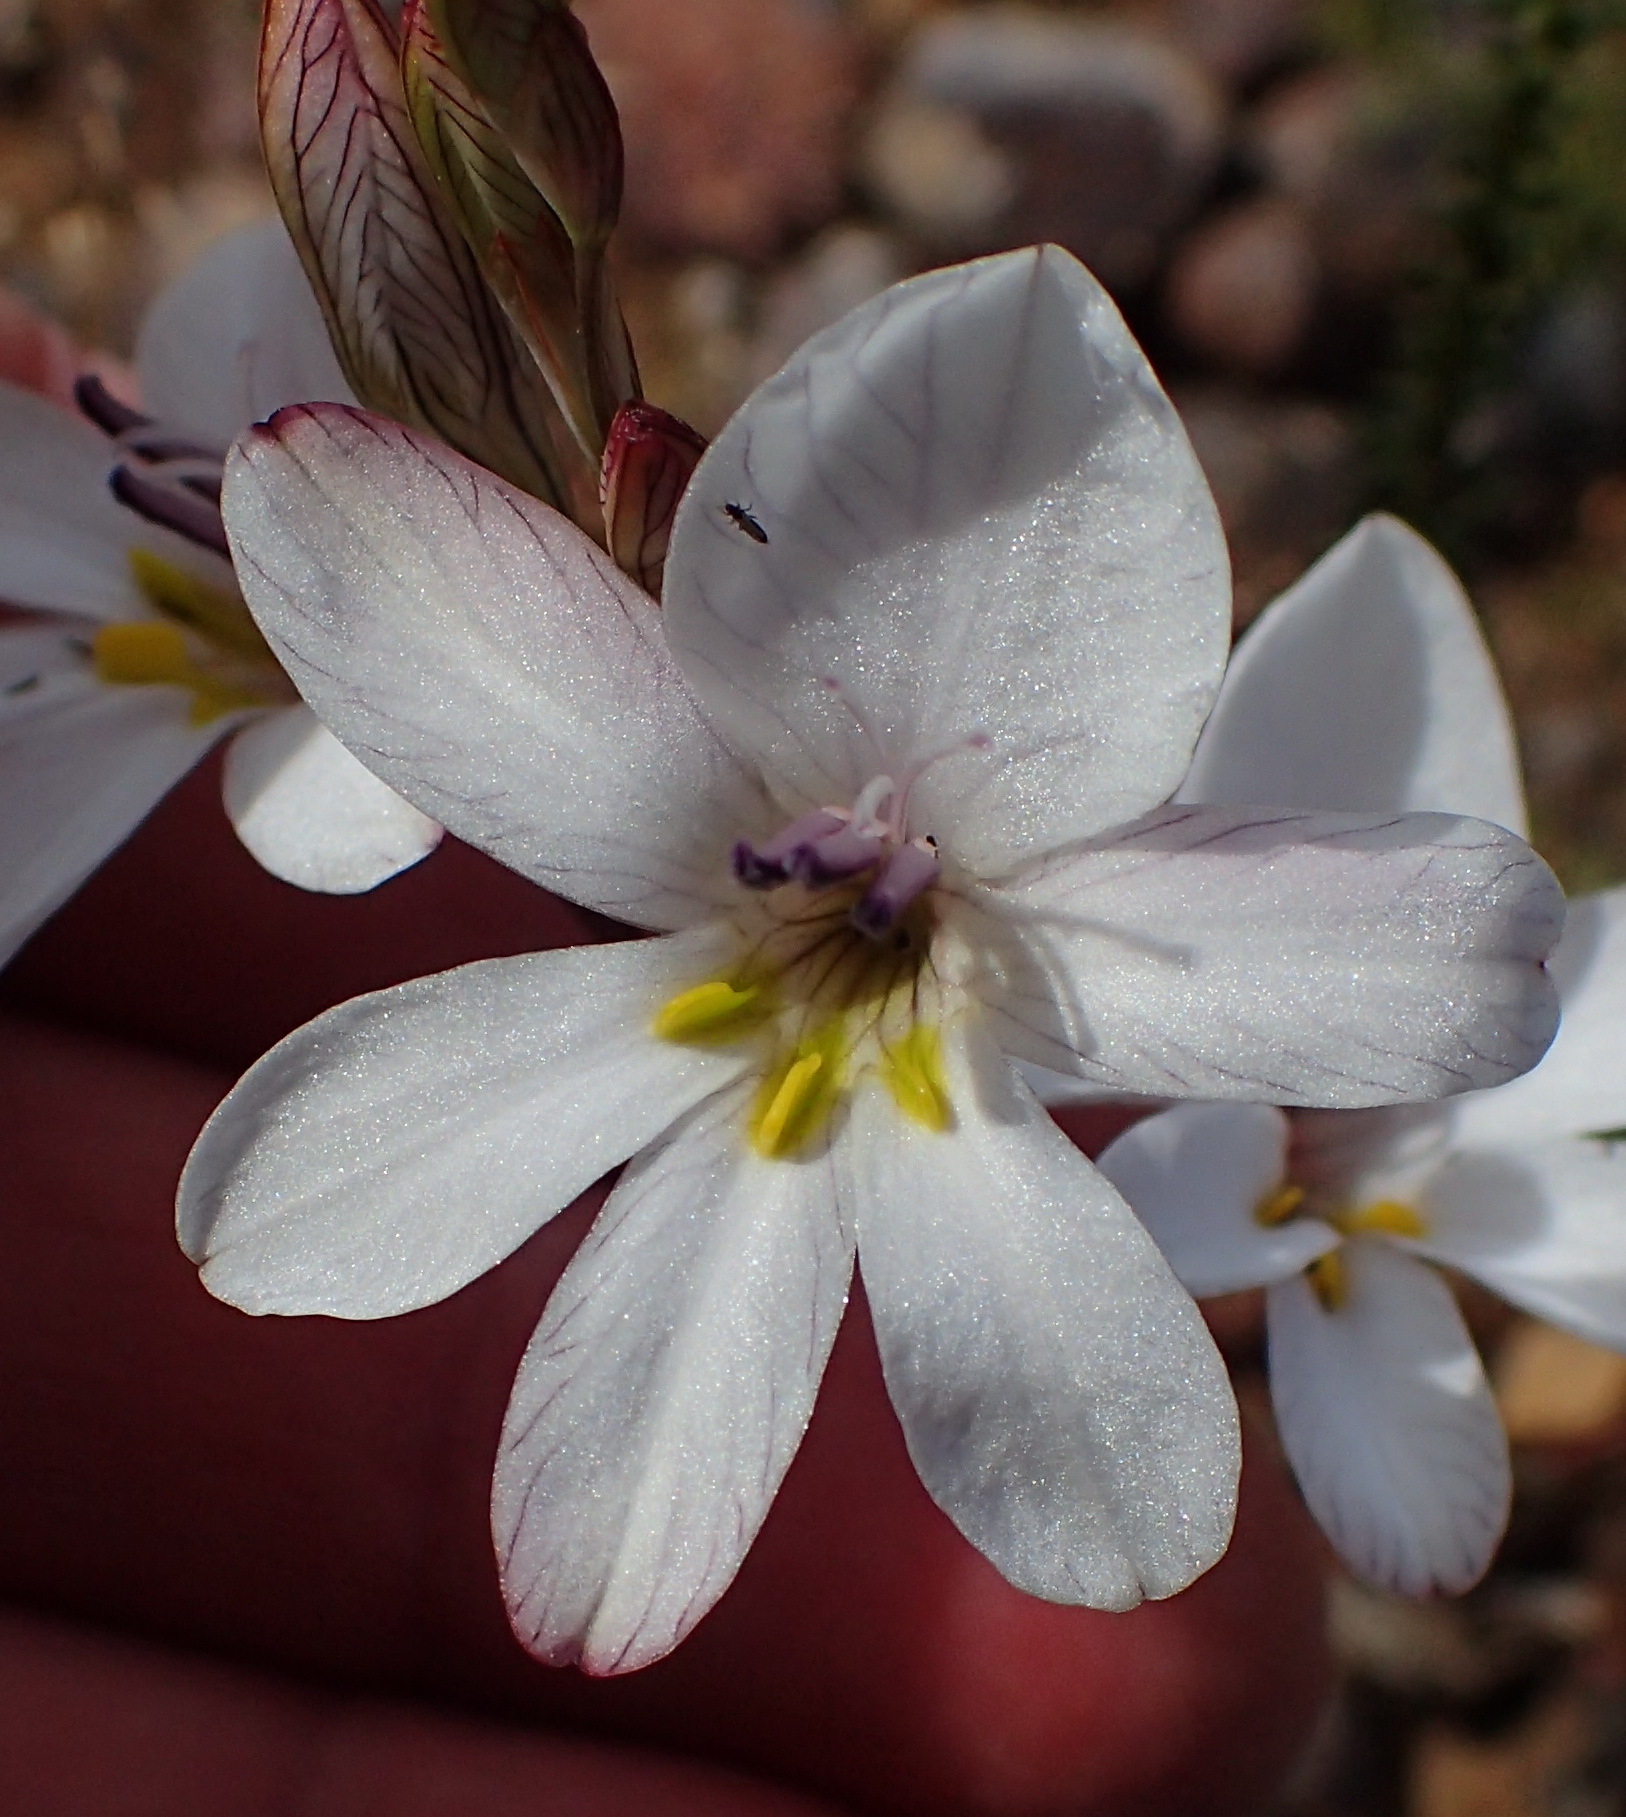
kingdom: Plantae
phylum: Tracheophyta
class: Liliopsida
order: Asparagales
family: Iridaceae
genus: Tritonia
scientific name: Tritonia pallida
